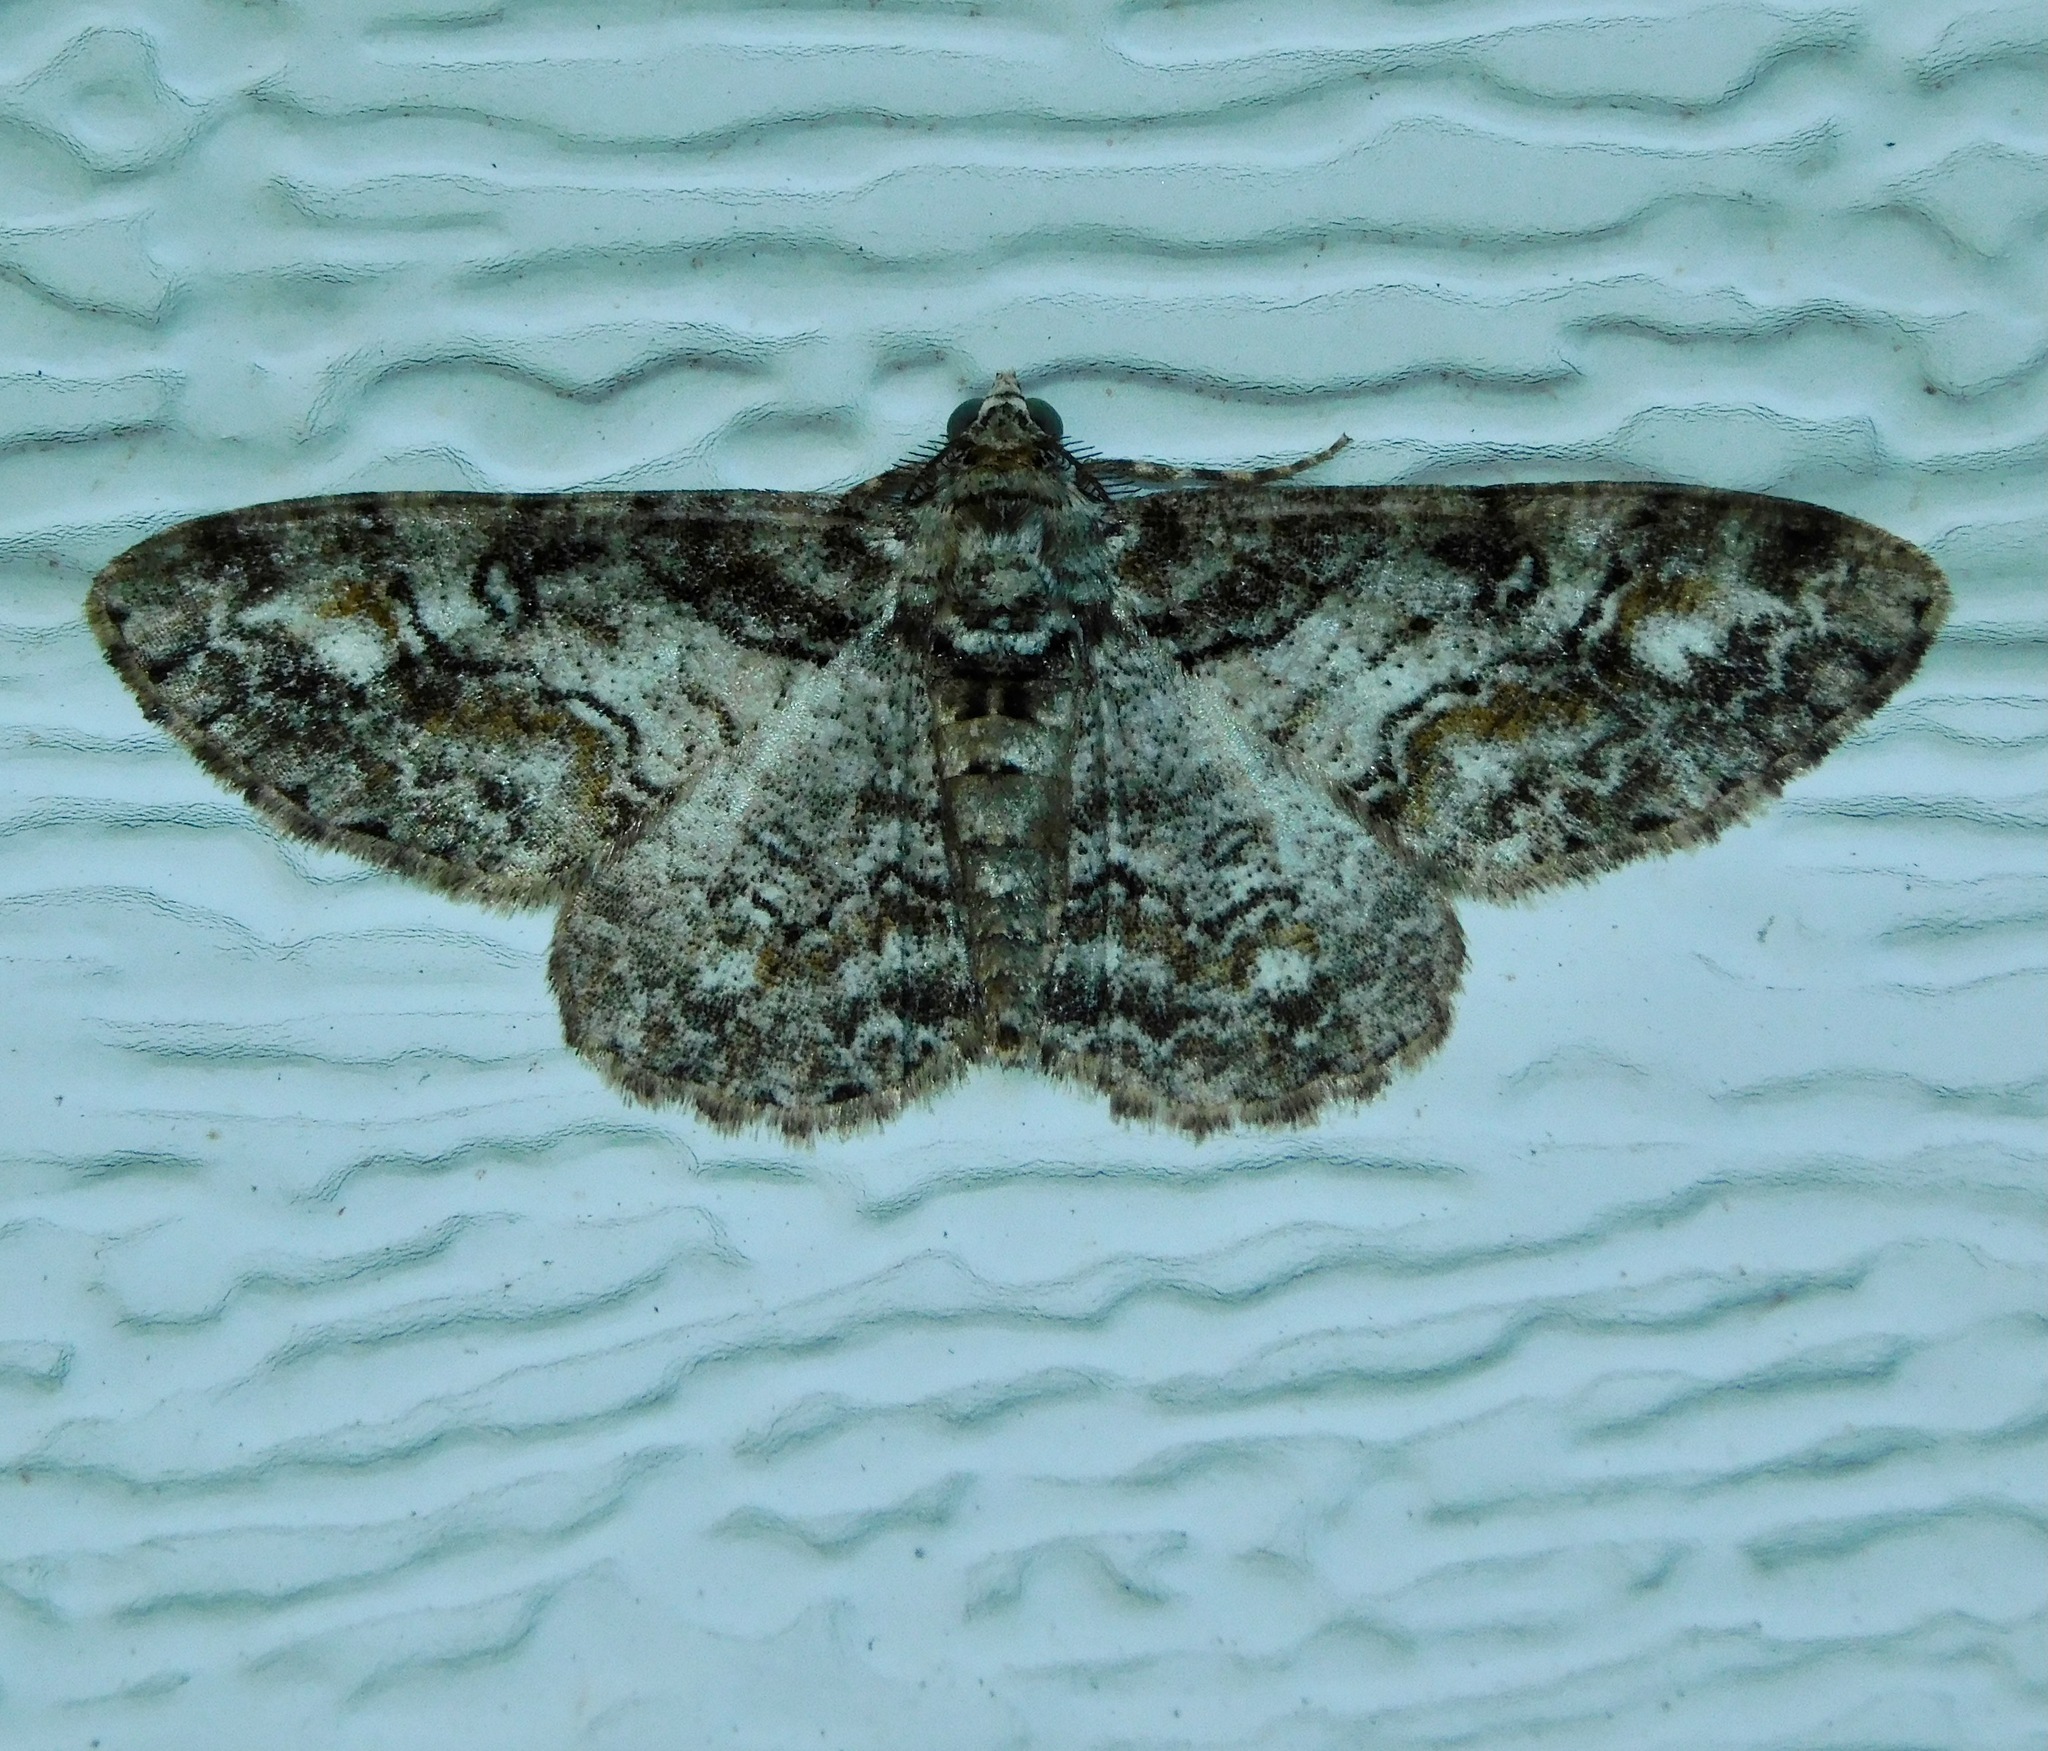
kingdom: Animalia
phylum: Arthropoda
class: Insecta
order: Lepidoptera
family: Geometridae
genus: Cleora
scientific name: Cleora sublunaria
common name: Double-lined gray
